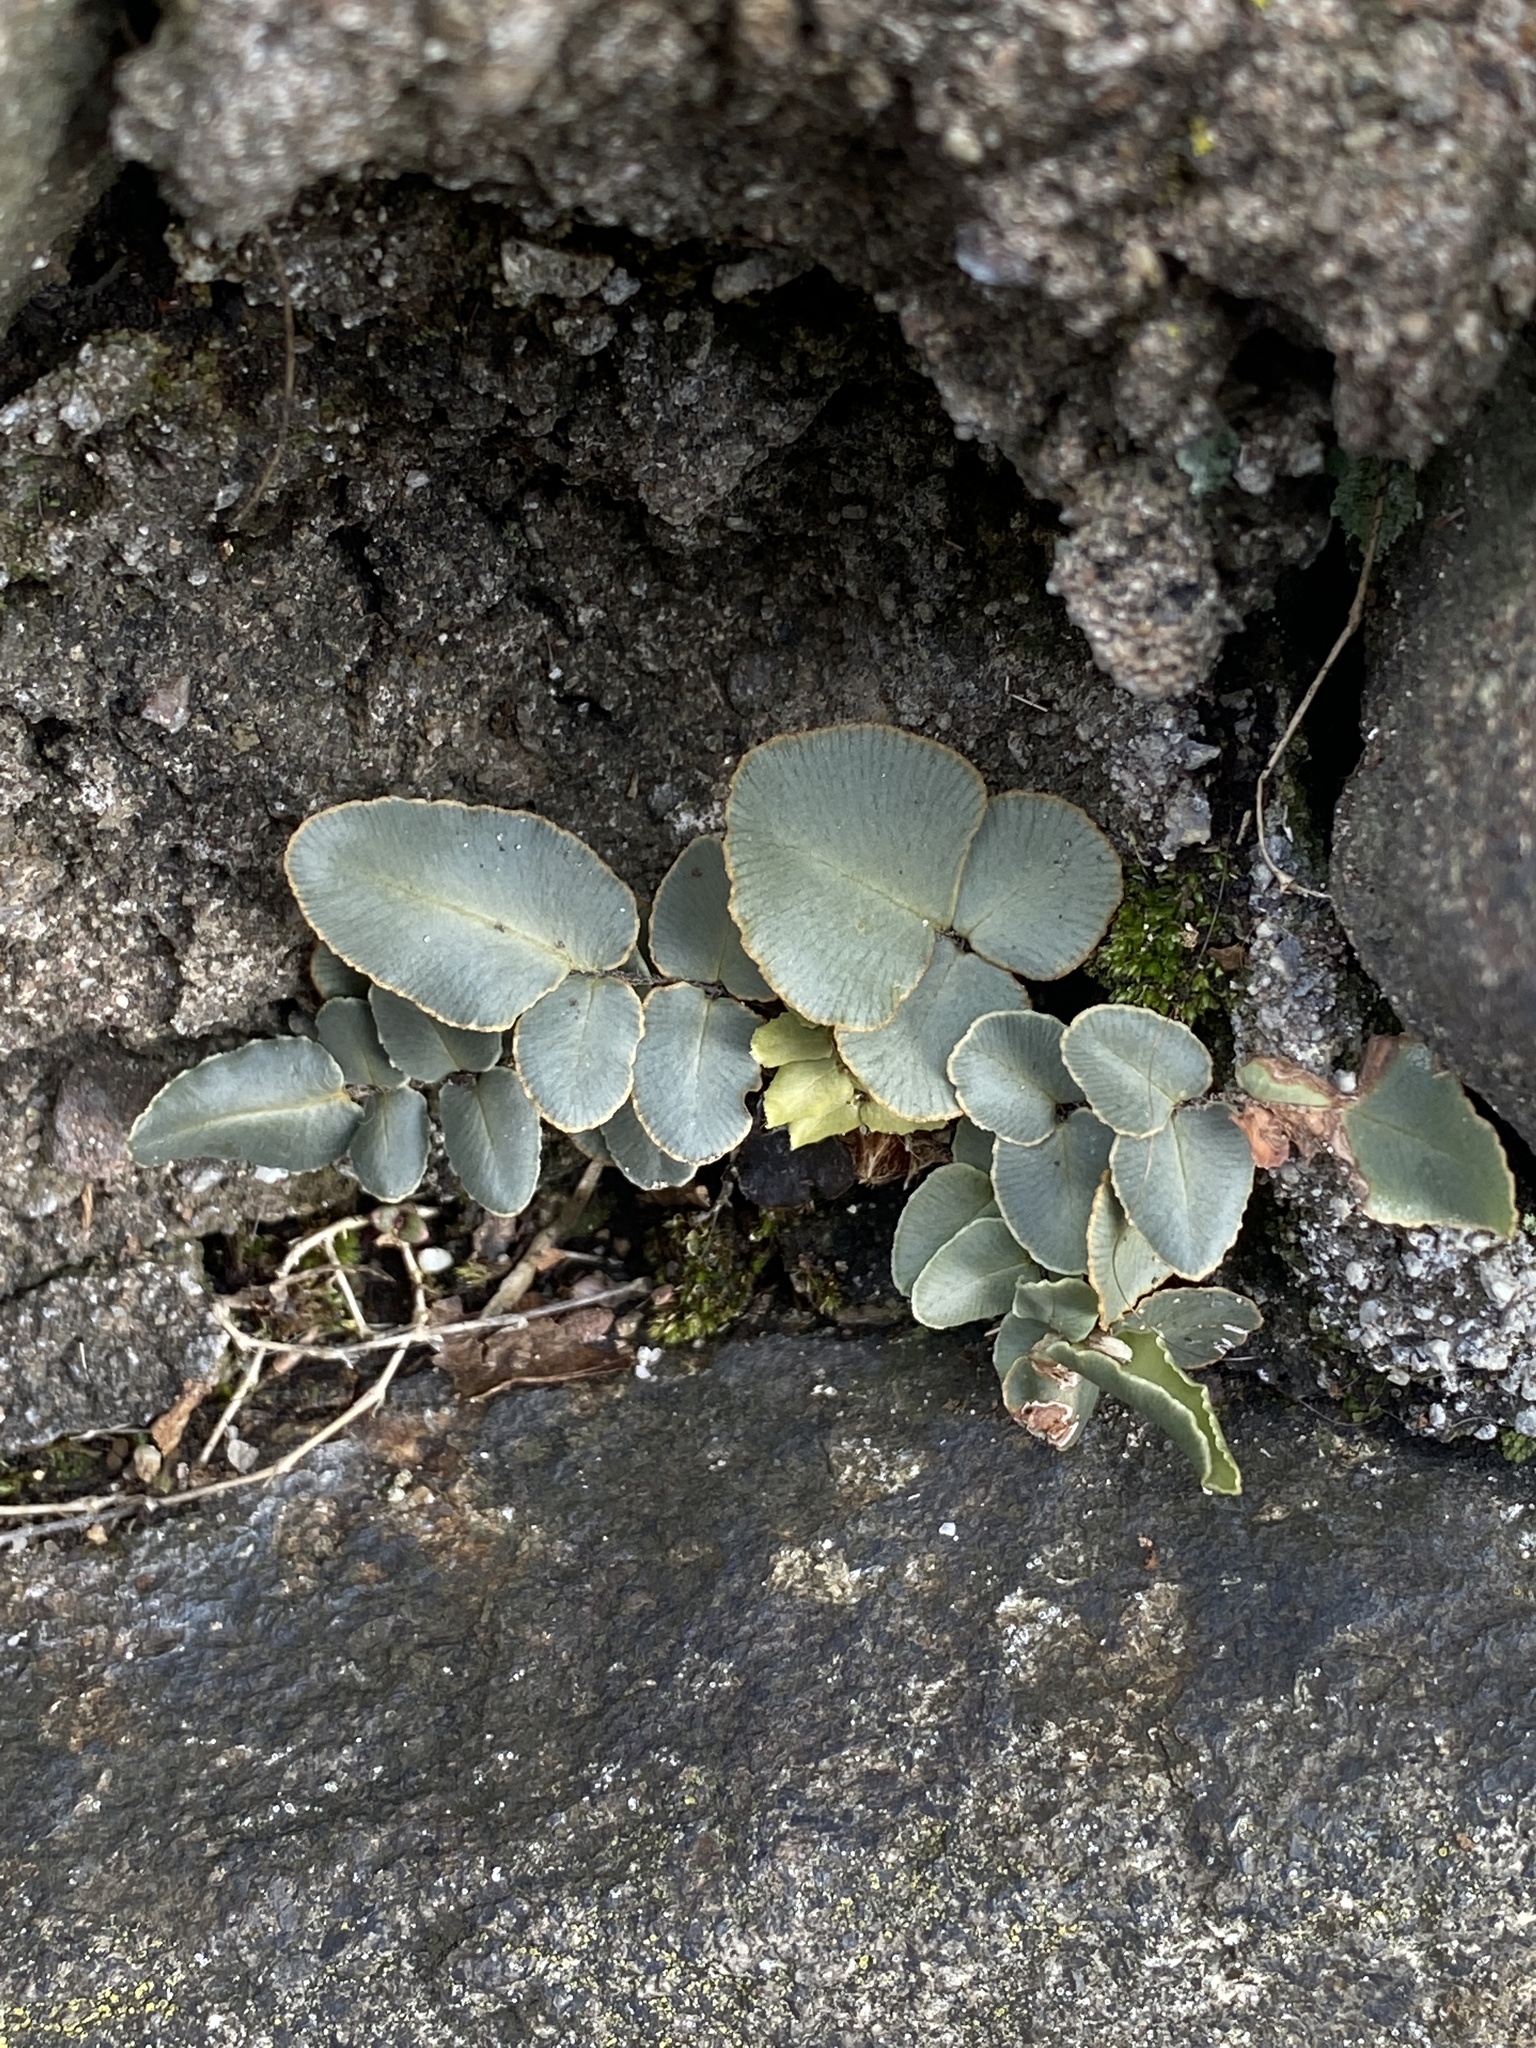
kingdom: Plantae
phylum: Tracheophyta
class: Polypodiopsida
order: Polypodiales
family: Pteridaceae
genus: Pellaea
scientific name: Pellaea atropurpurea
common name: Hairy cliffbrake
